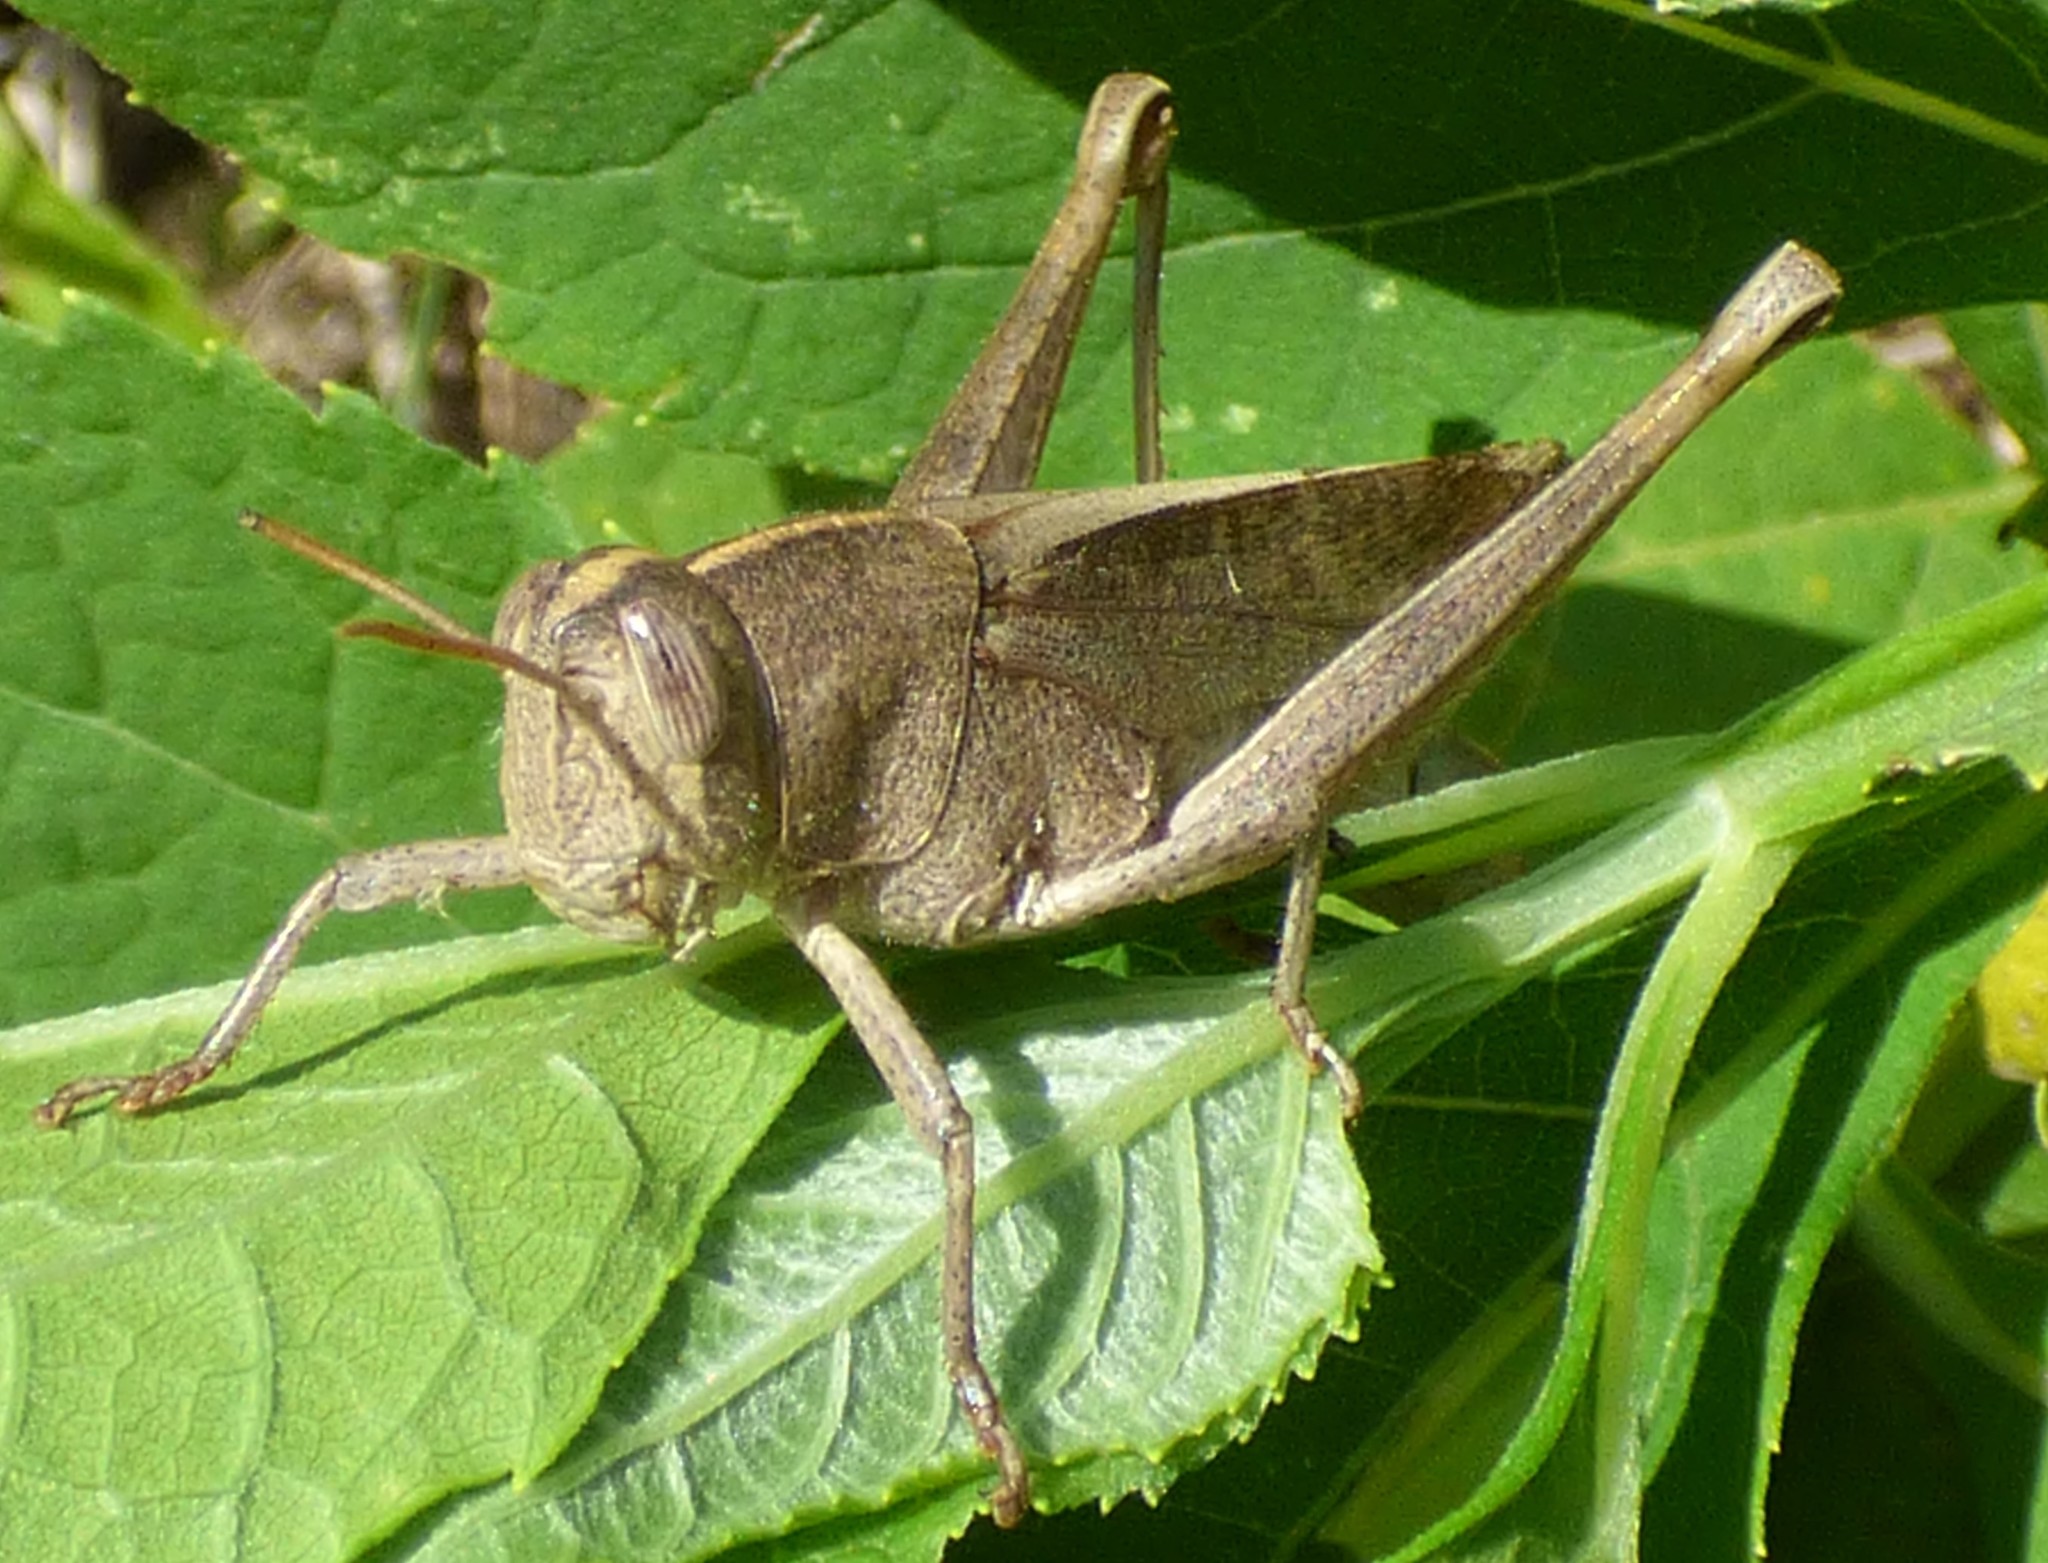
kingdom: Animalia
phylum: Arthropoda
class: Insecta
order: Orthoptera
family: Acrididae
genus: Schistocerca
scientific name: Schistocerca damnifica
